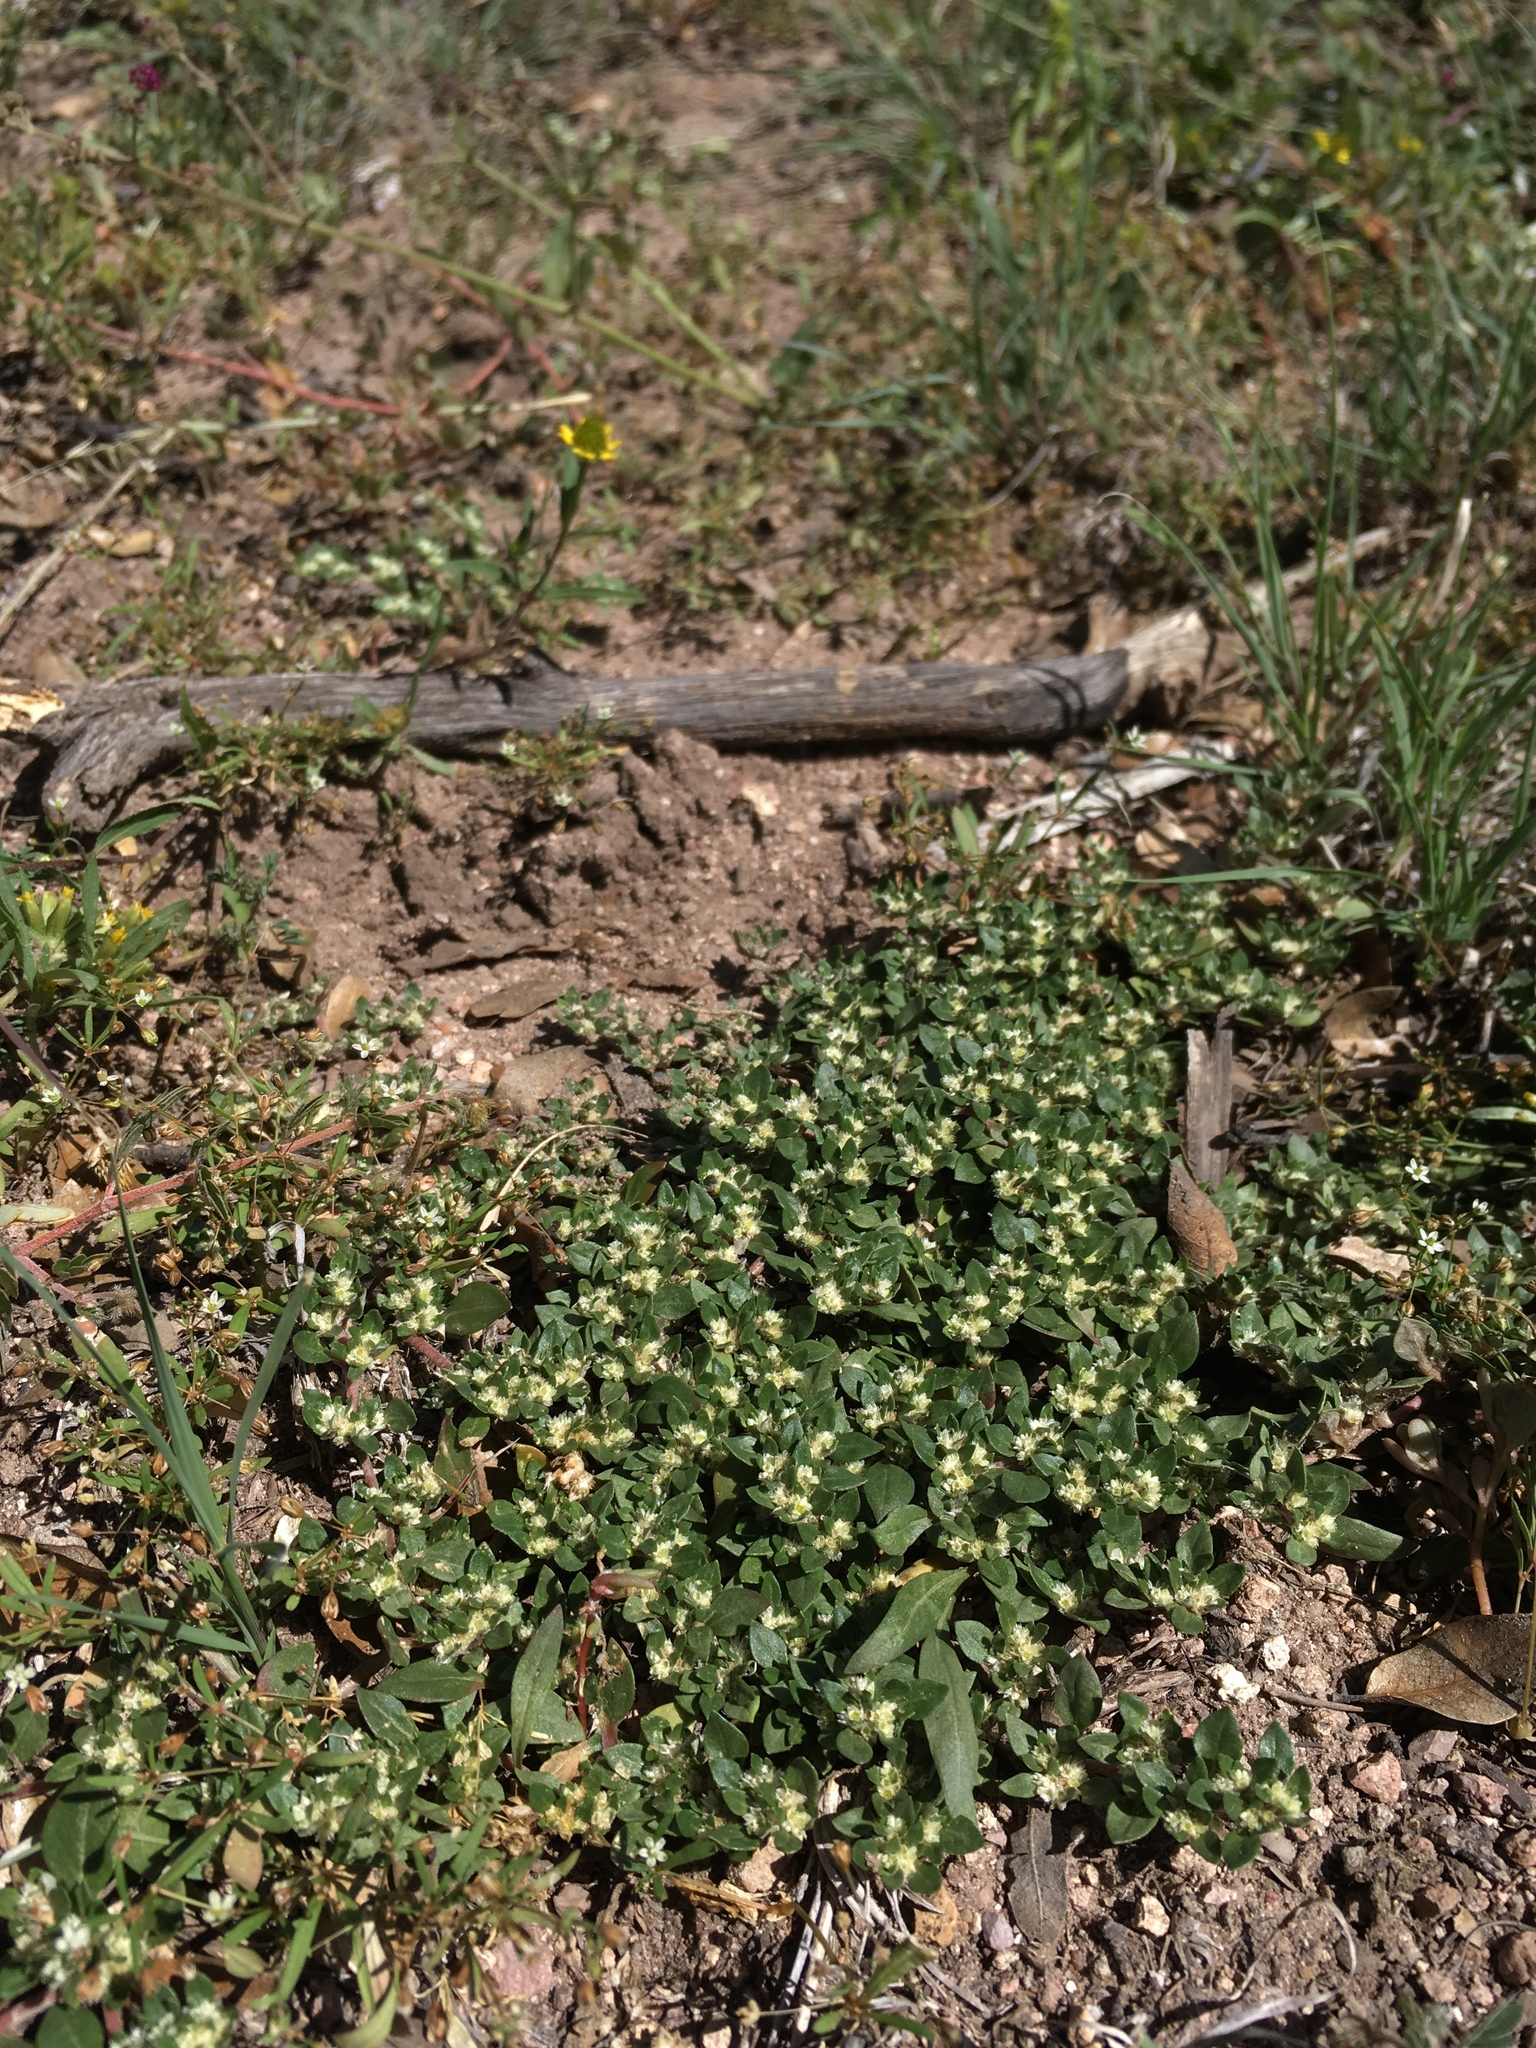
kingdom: Plantae
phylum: Tracheophyta
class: Magnoliopsida
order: Caryophyllales
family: Amaranthaceae
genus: Guilleminea
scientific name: Guilleminea densa
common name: Small matweed
